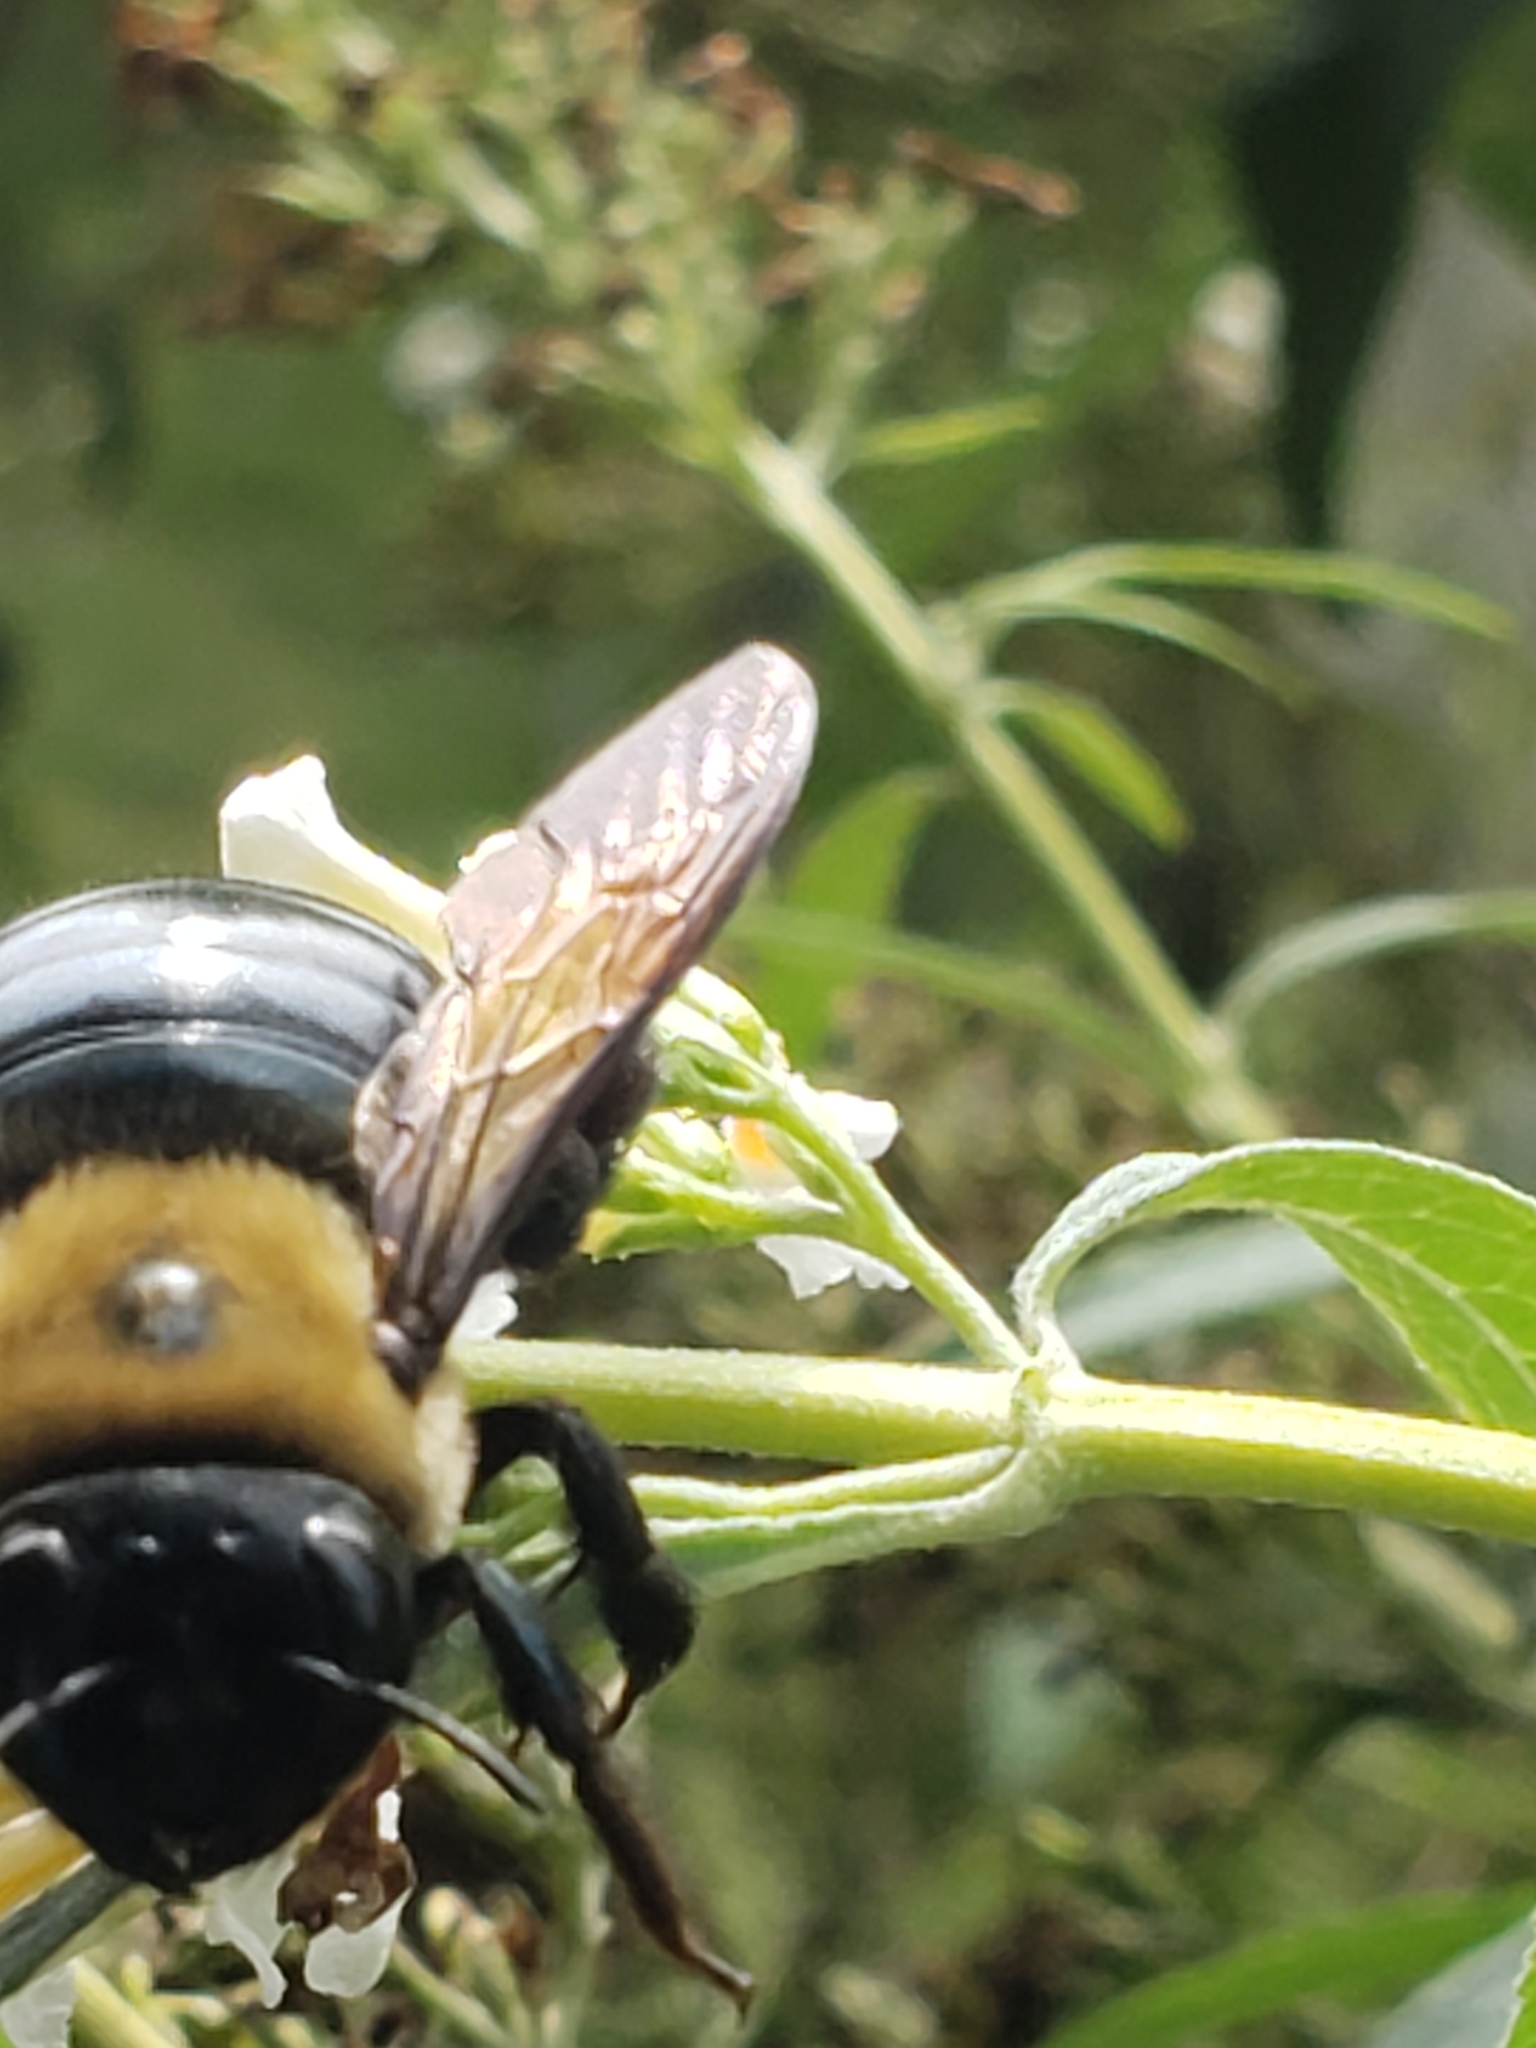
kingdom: Animalia
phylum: Arthropoda
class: Insecta
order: Hymenoptera
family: Apidae
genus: Xylocopa
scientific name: Xylocopa virginica
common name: Carpenter bee
